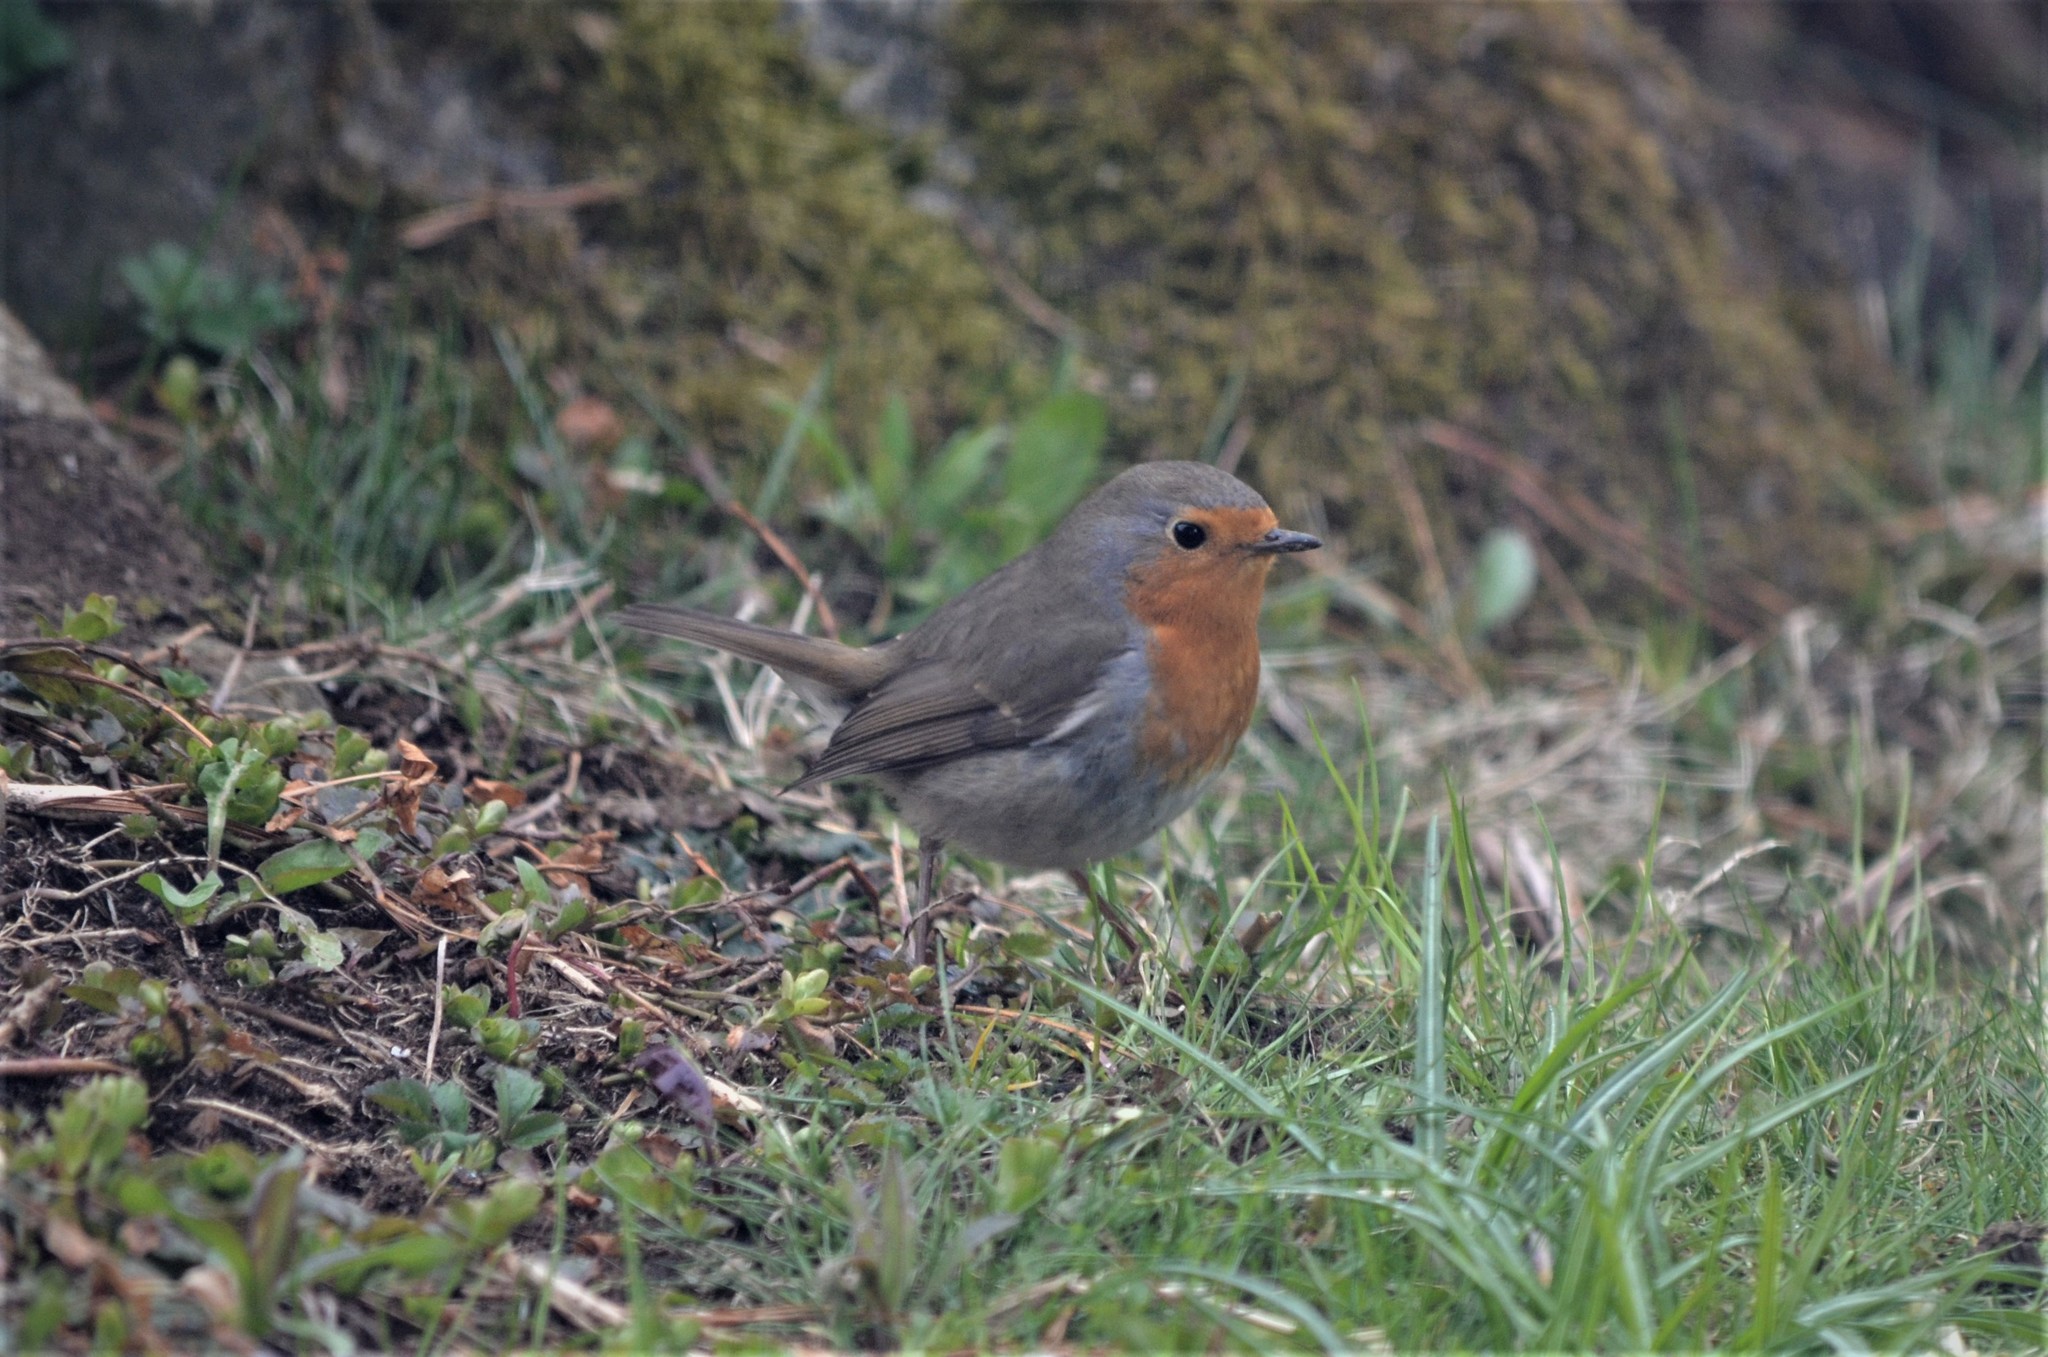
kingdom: Animalia
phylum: Chordata
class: Aves
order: Passeriformes
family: Muscicapidae
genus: Erithacus
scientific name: Erithacus rubecula
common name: European robin
